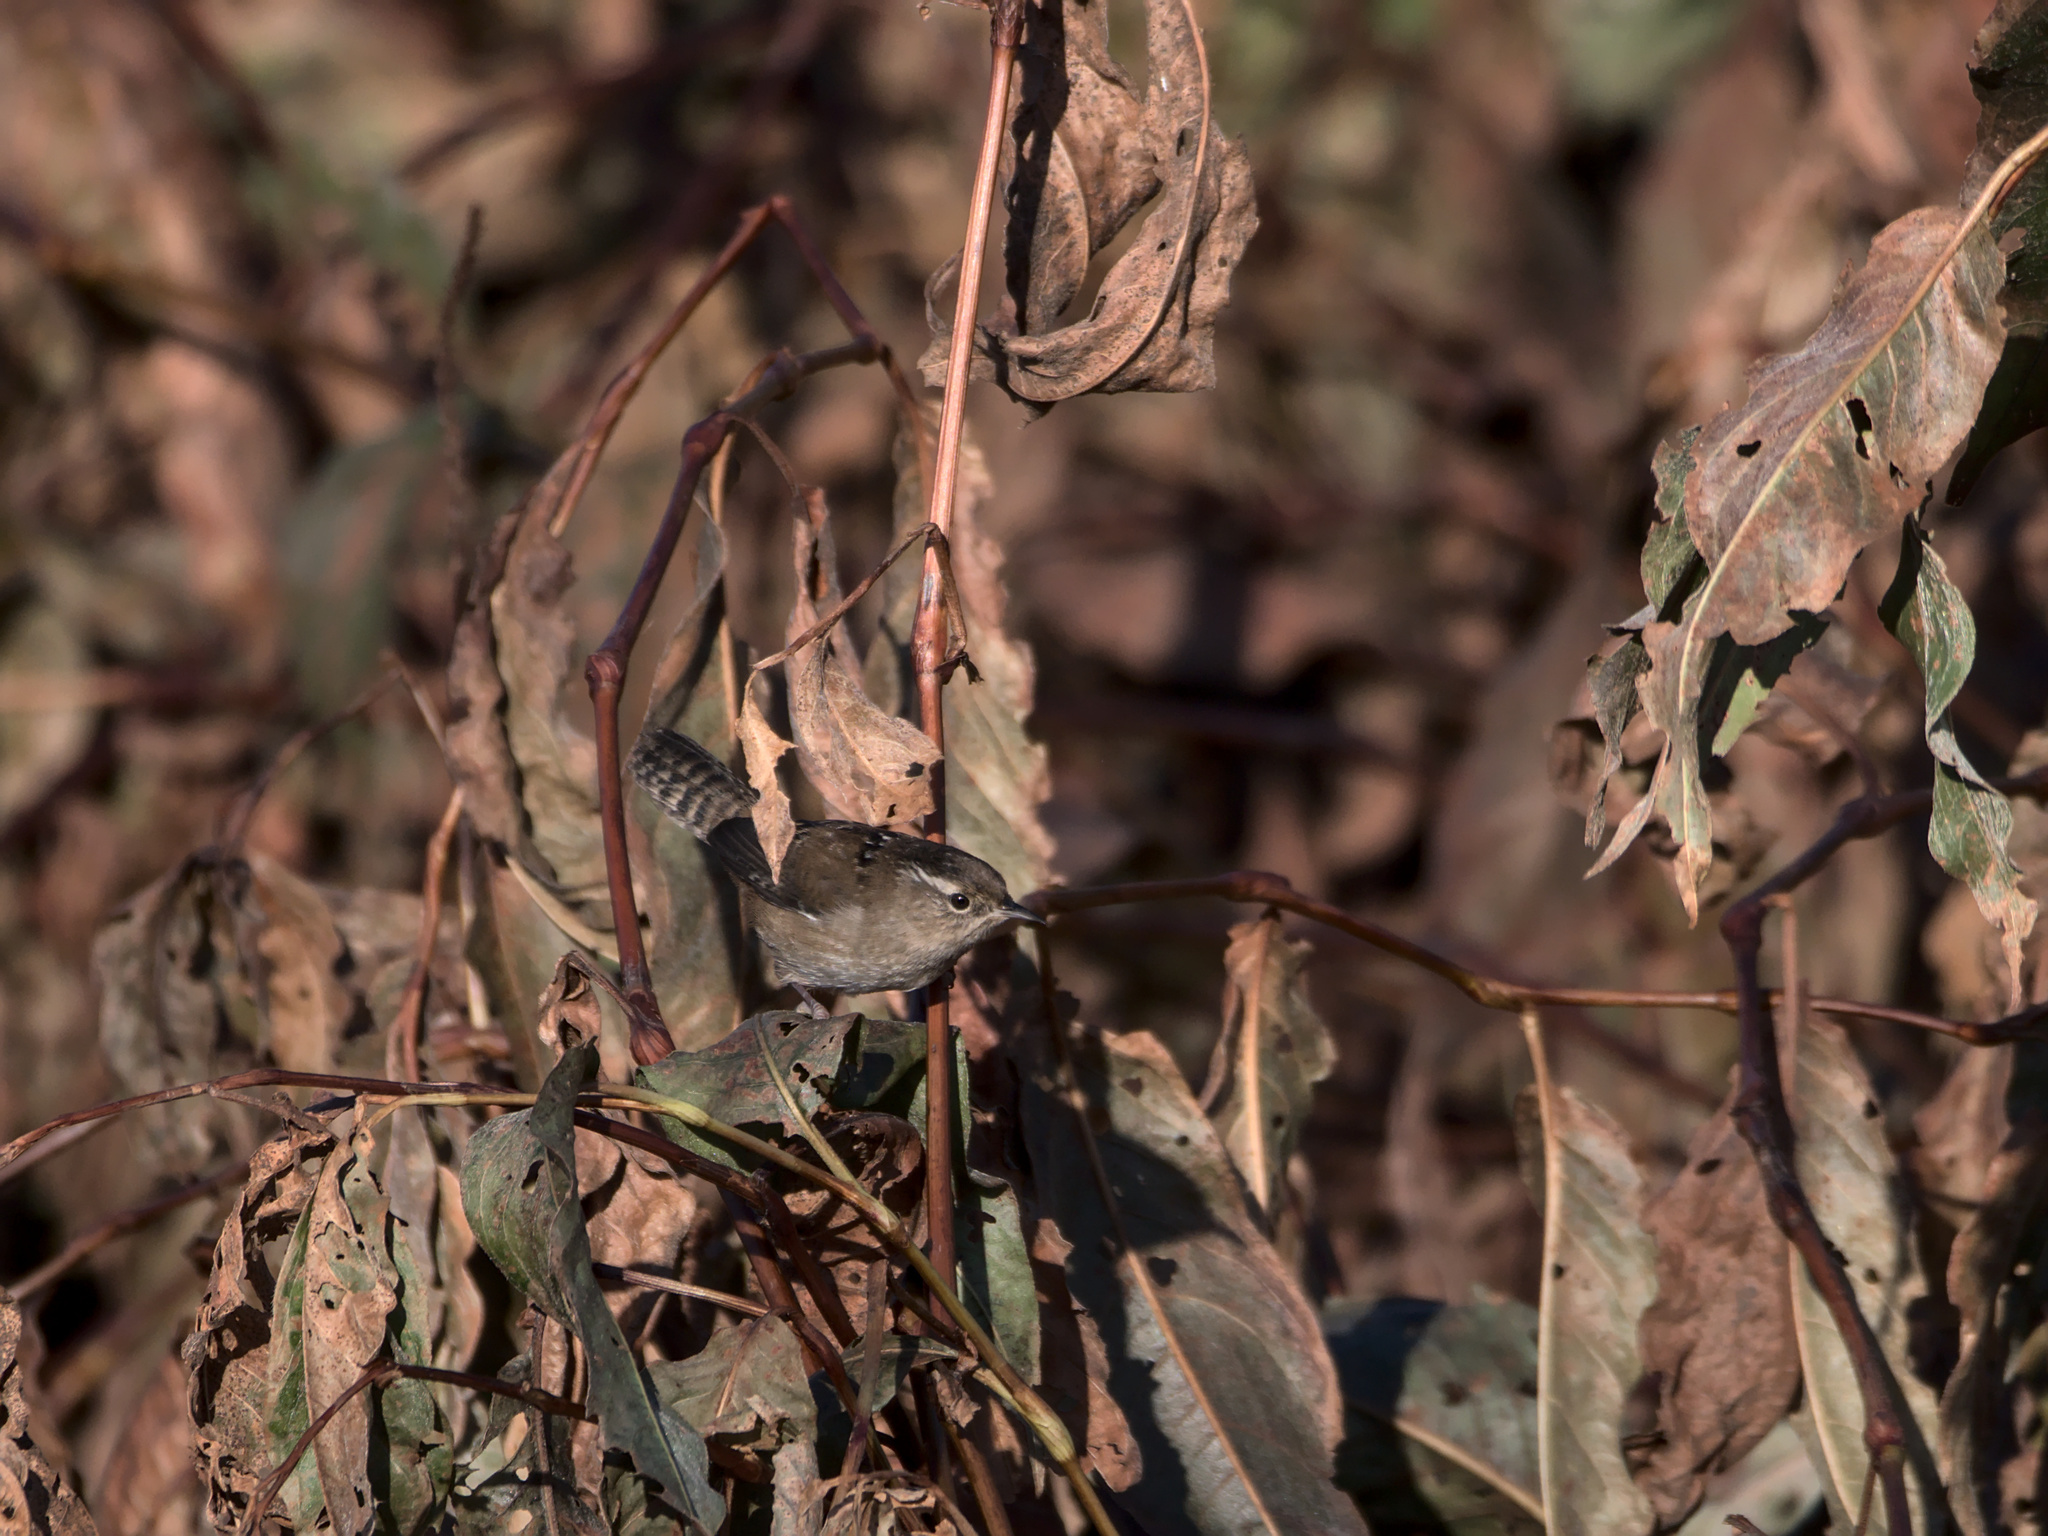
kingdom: Animalia
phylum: Chordata
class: Aves
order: Passeriformes
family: Troglodytidae
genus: Cistothorus
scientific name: Cistothorus palustris
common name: Marsh wren
